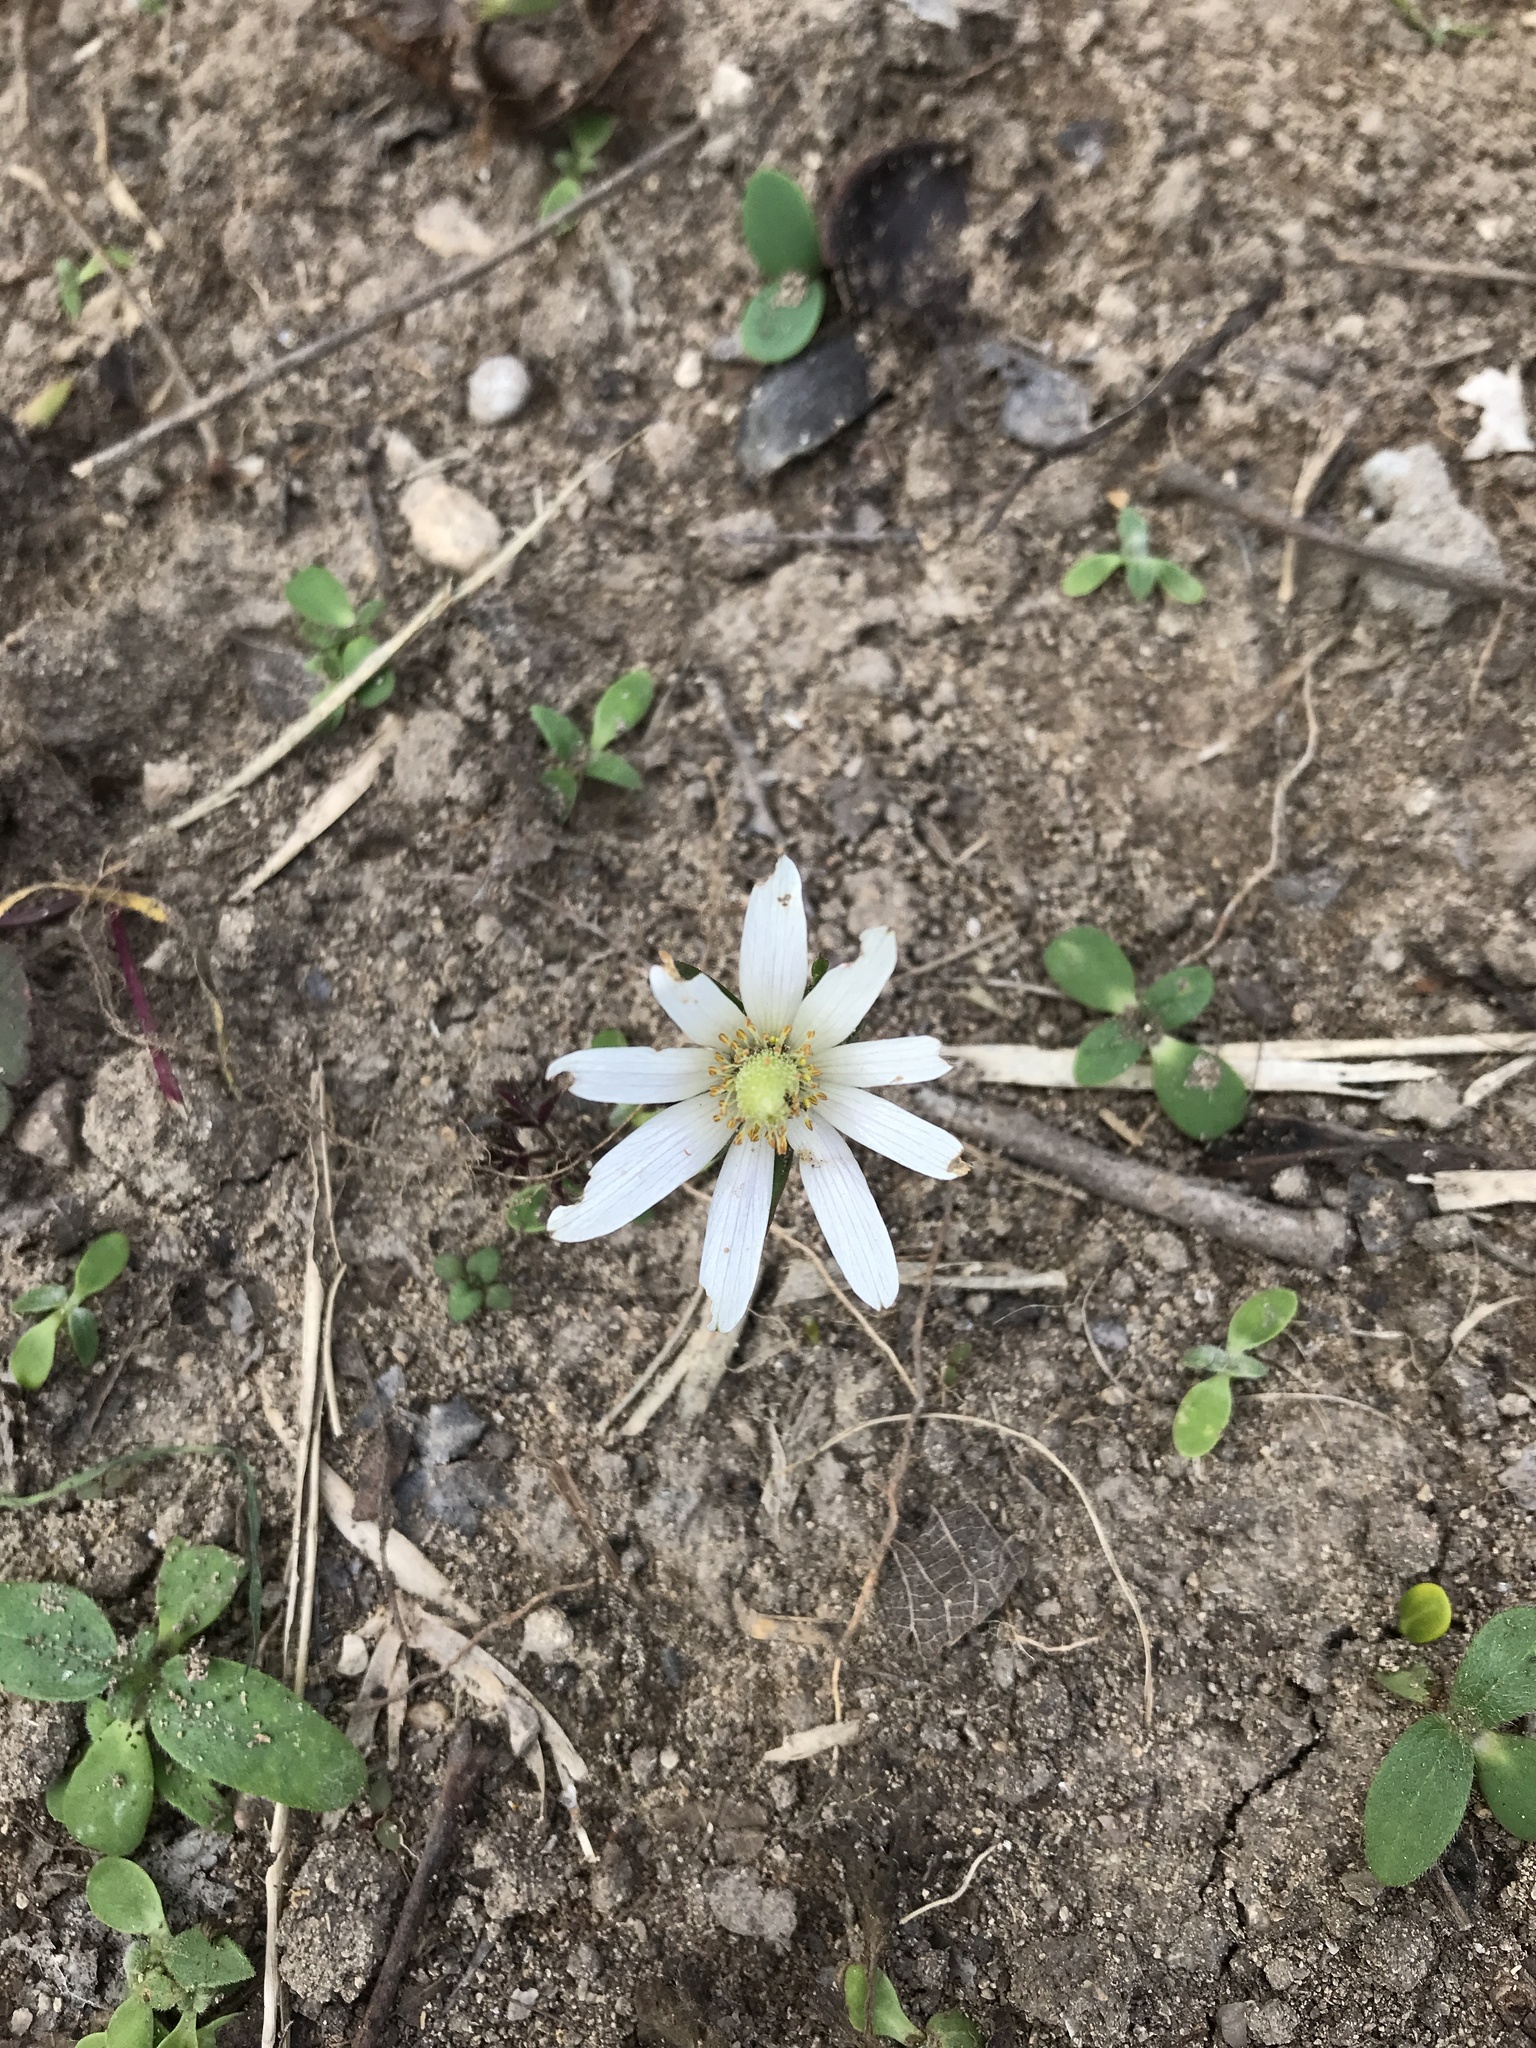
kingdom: Plantae
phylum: Tracheophyta
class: Magnoliopsida
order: Ranunculales
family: Ranunculaceae
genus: Anemone
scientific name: Anemone berlandieri
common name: Ten-petal anemone
